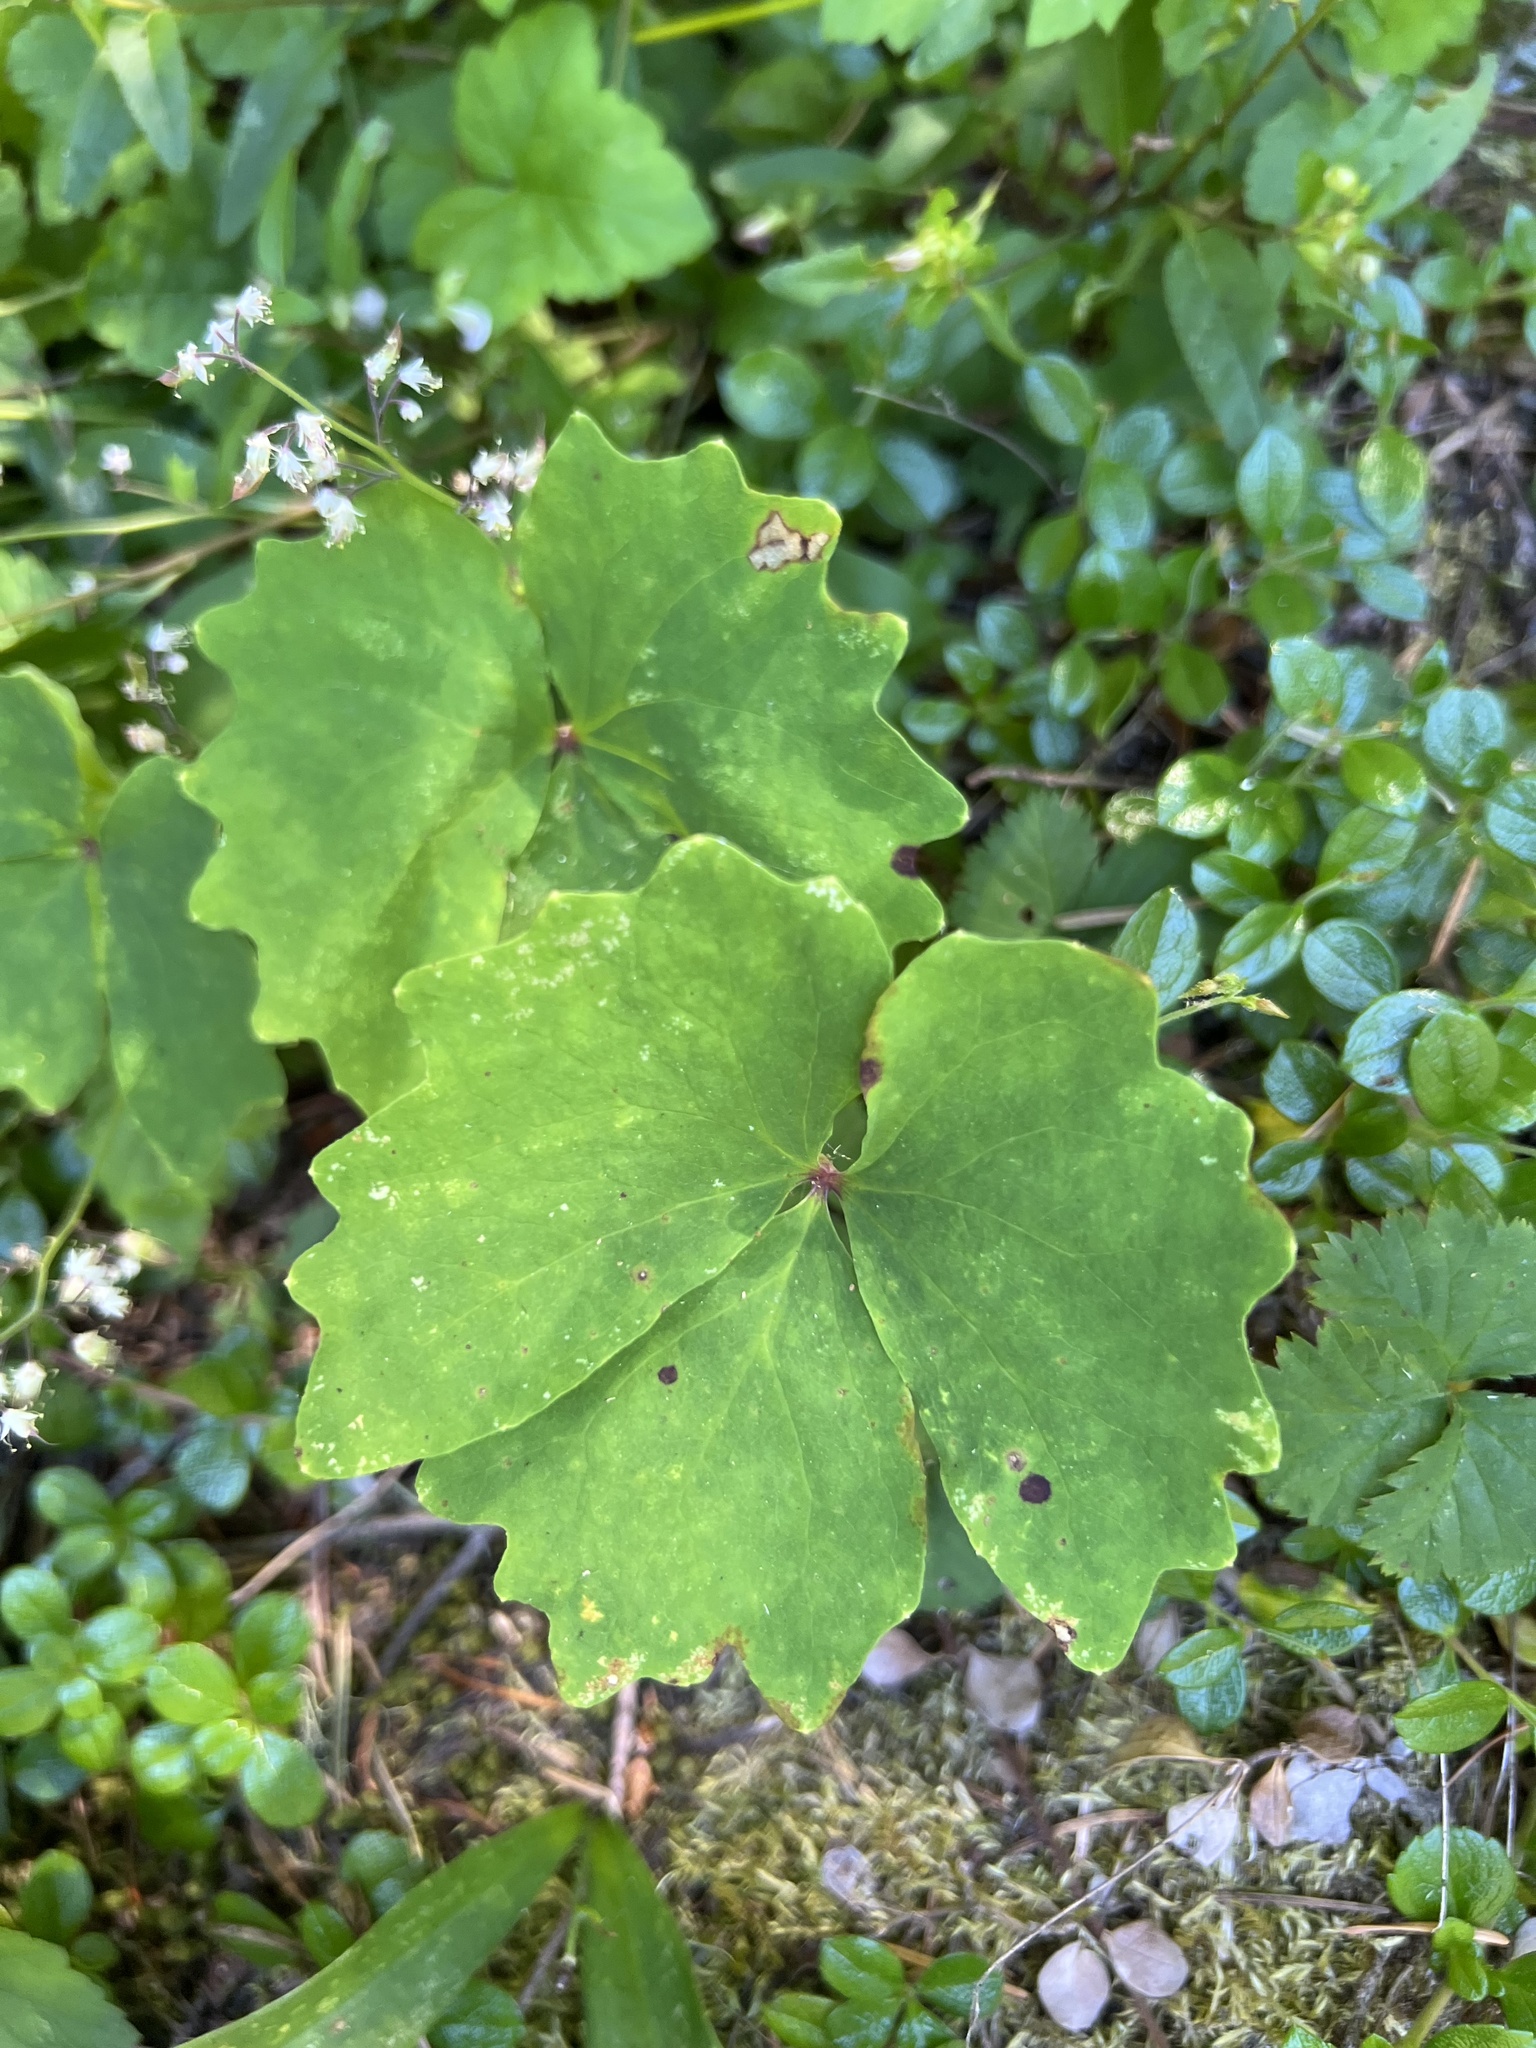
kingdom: Plantae
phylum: Tracheophyta
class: Magnoliopsida
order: Ranunculales
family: Berberidaceae
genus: Achlys
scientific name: Achlys triphylla
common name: Vanilla-leaf
